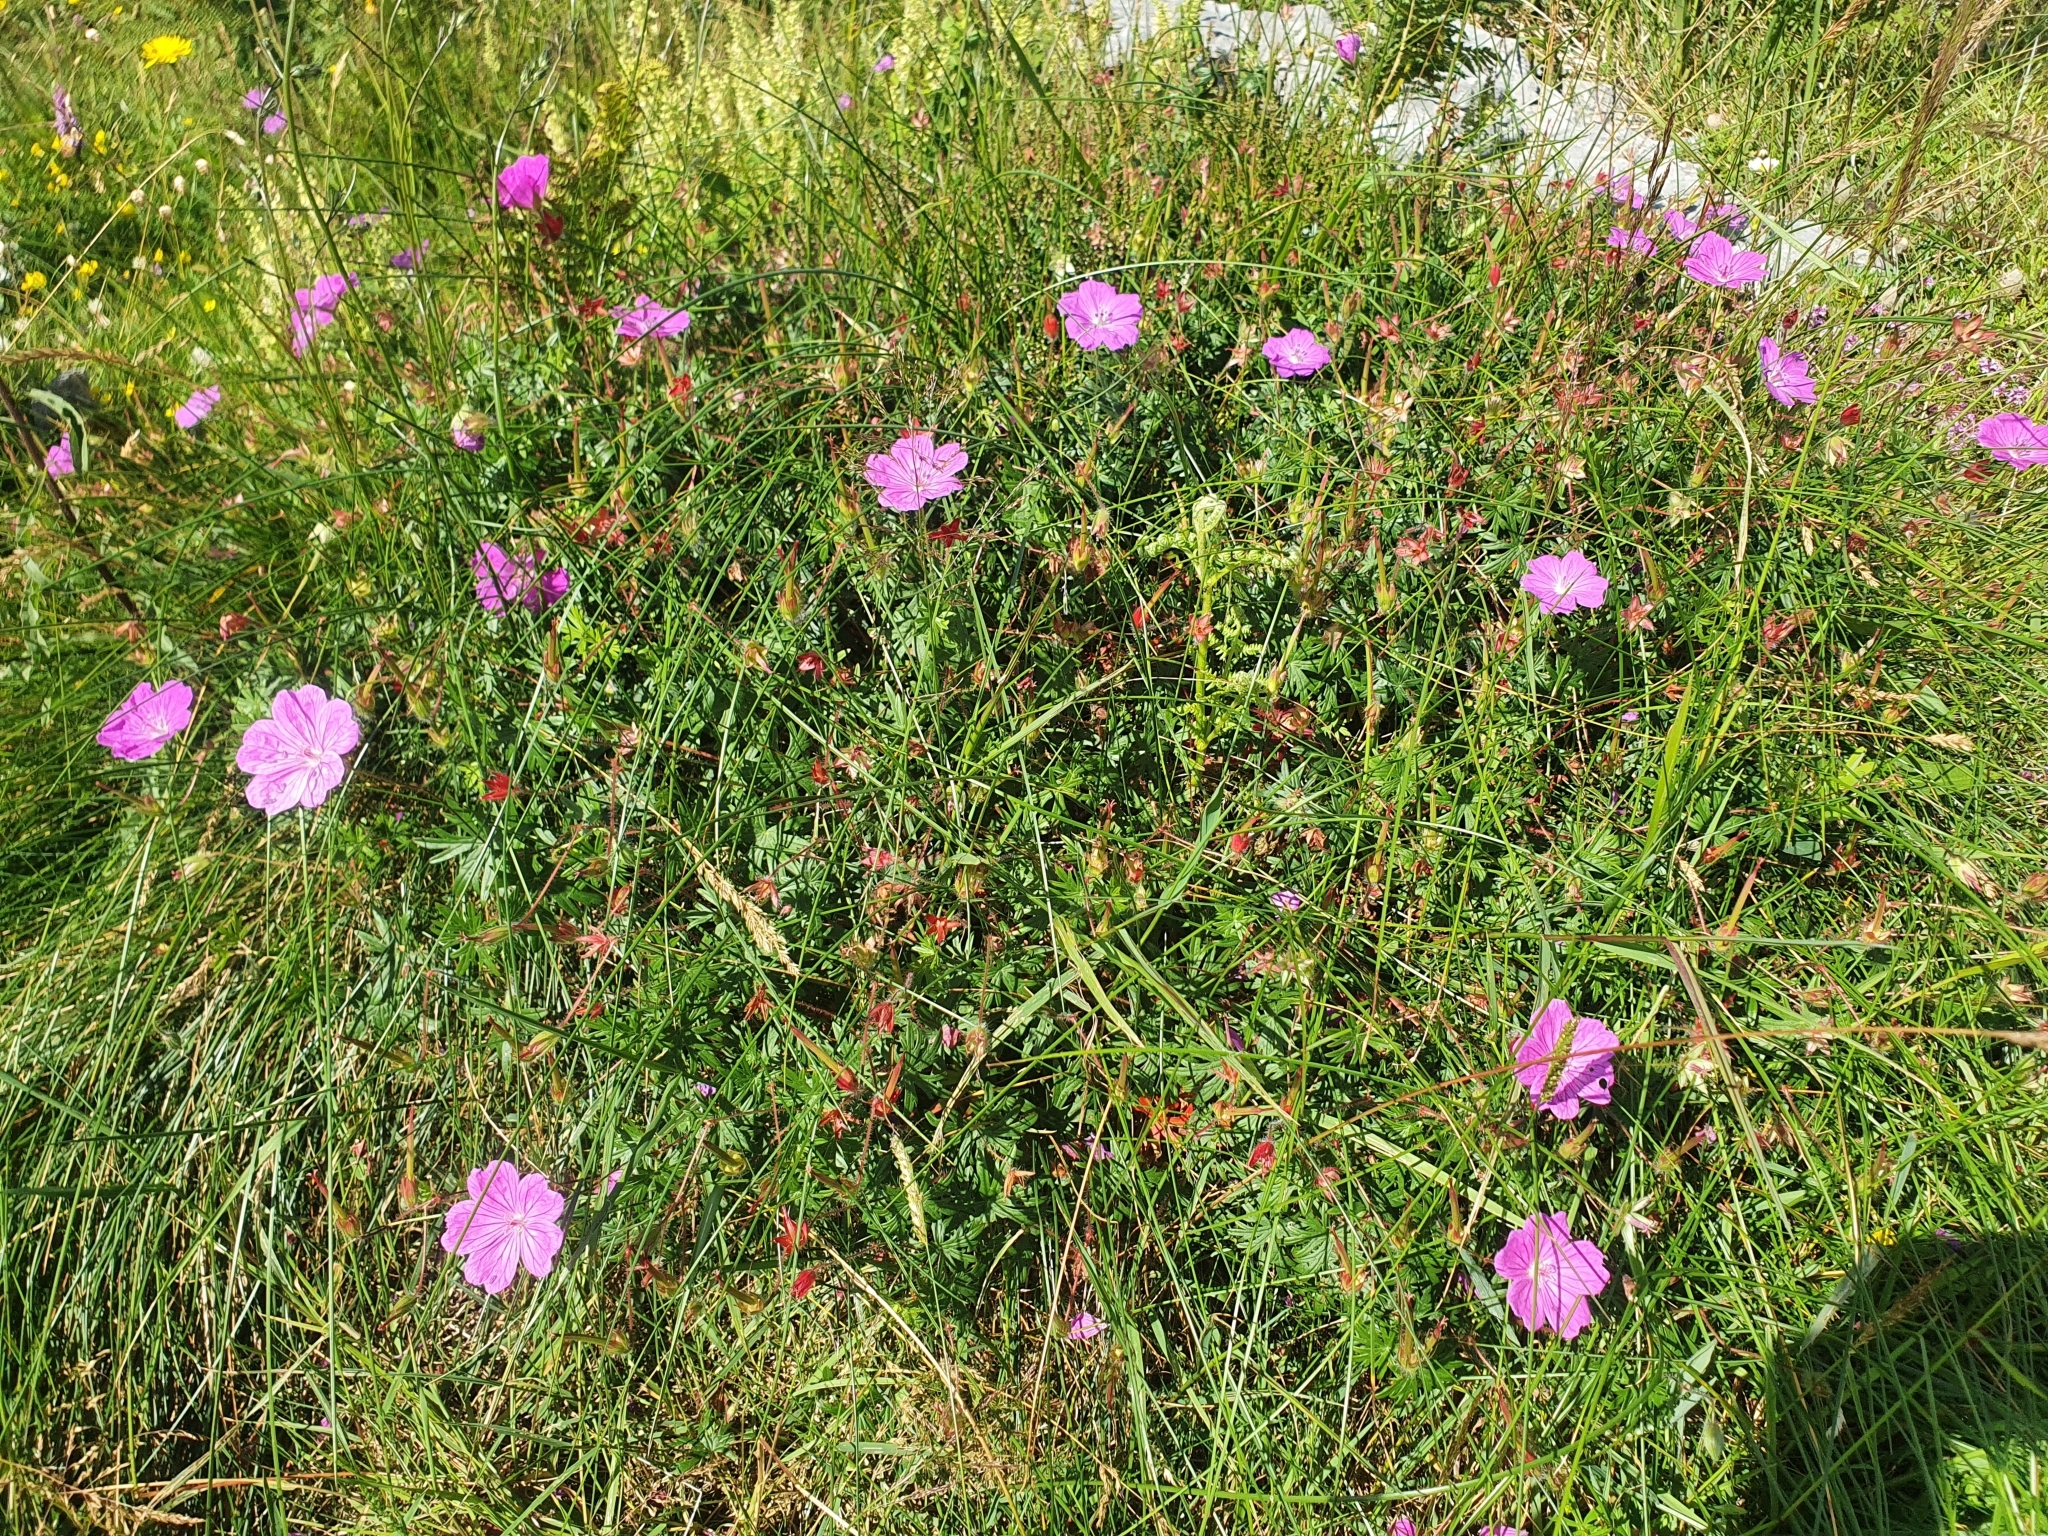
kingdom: Plantae
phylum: Tracheophyta
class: Magnoliopsida
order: Geraniales
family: Geraniaceae
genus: Geranium
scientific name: Geranium sanguineum
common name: Bloody crane's-bill
